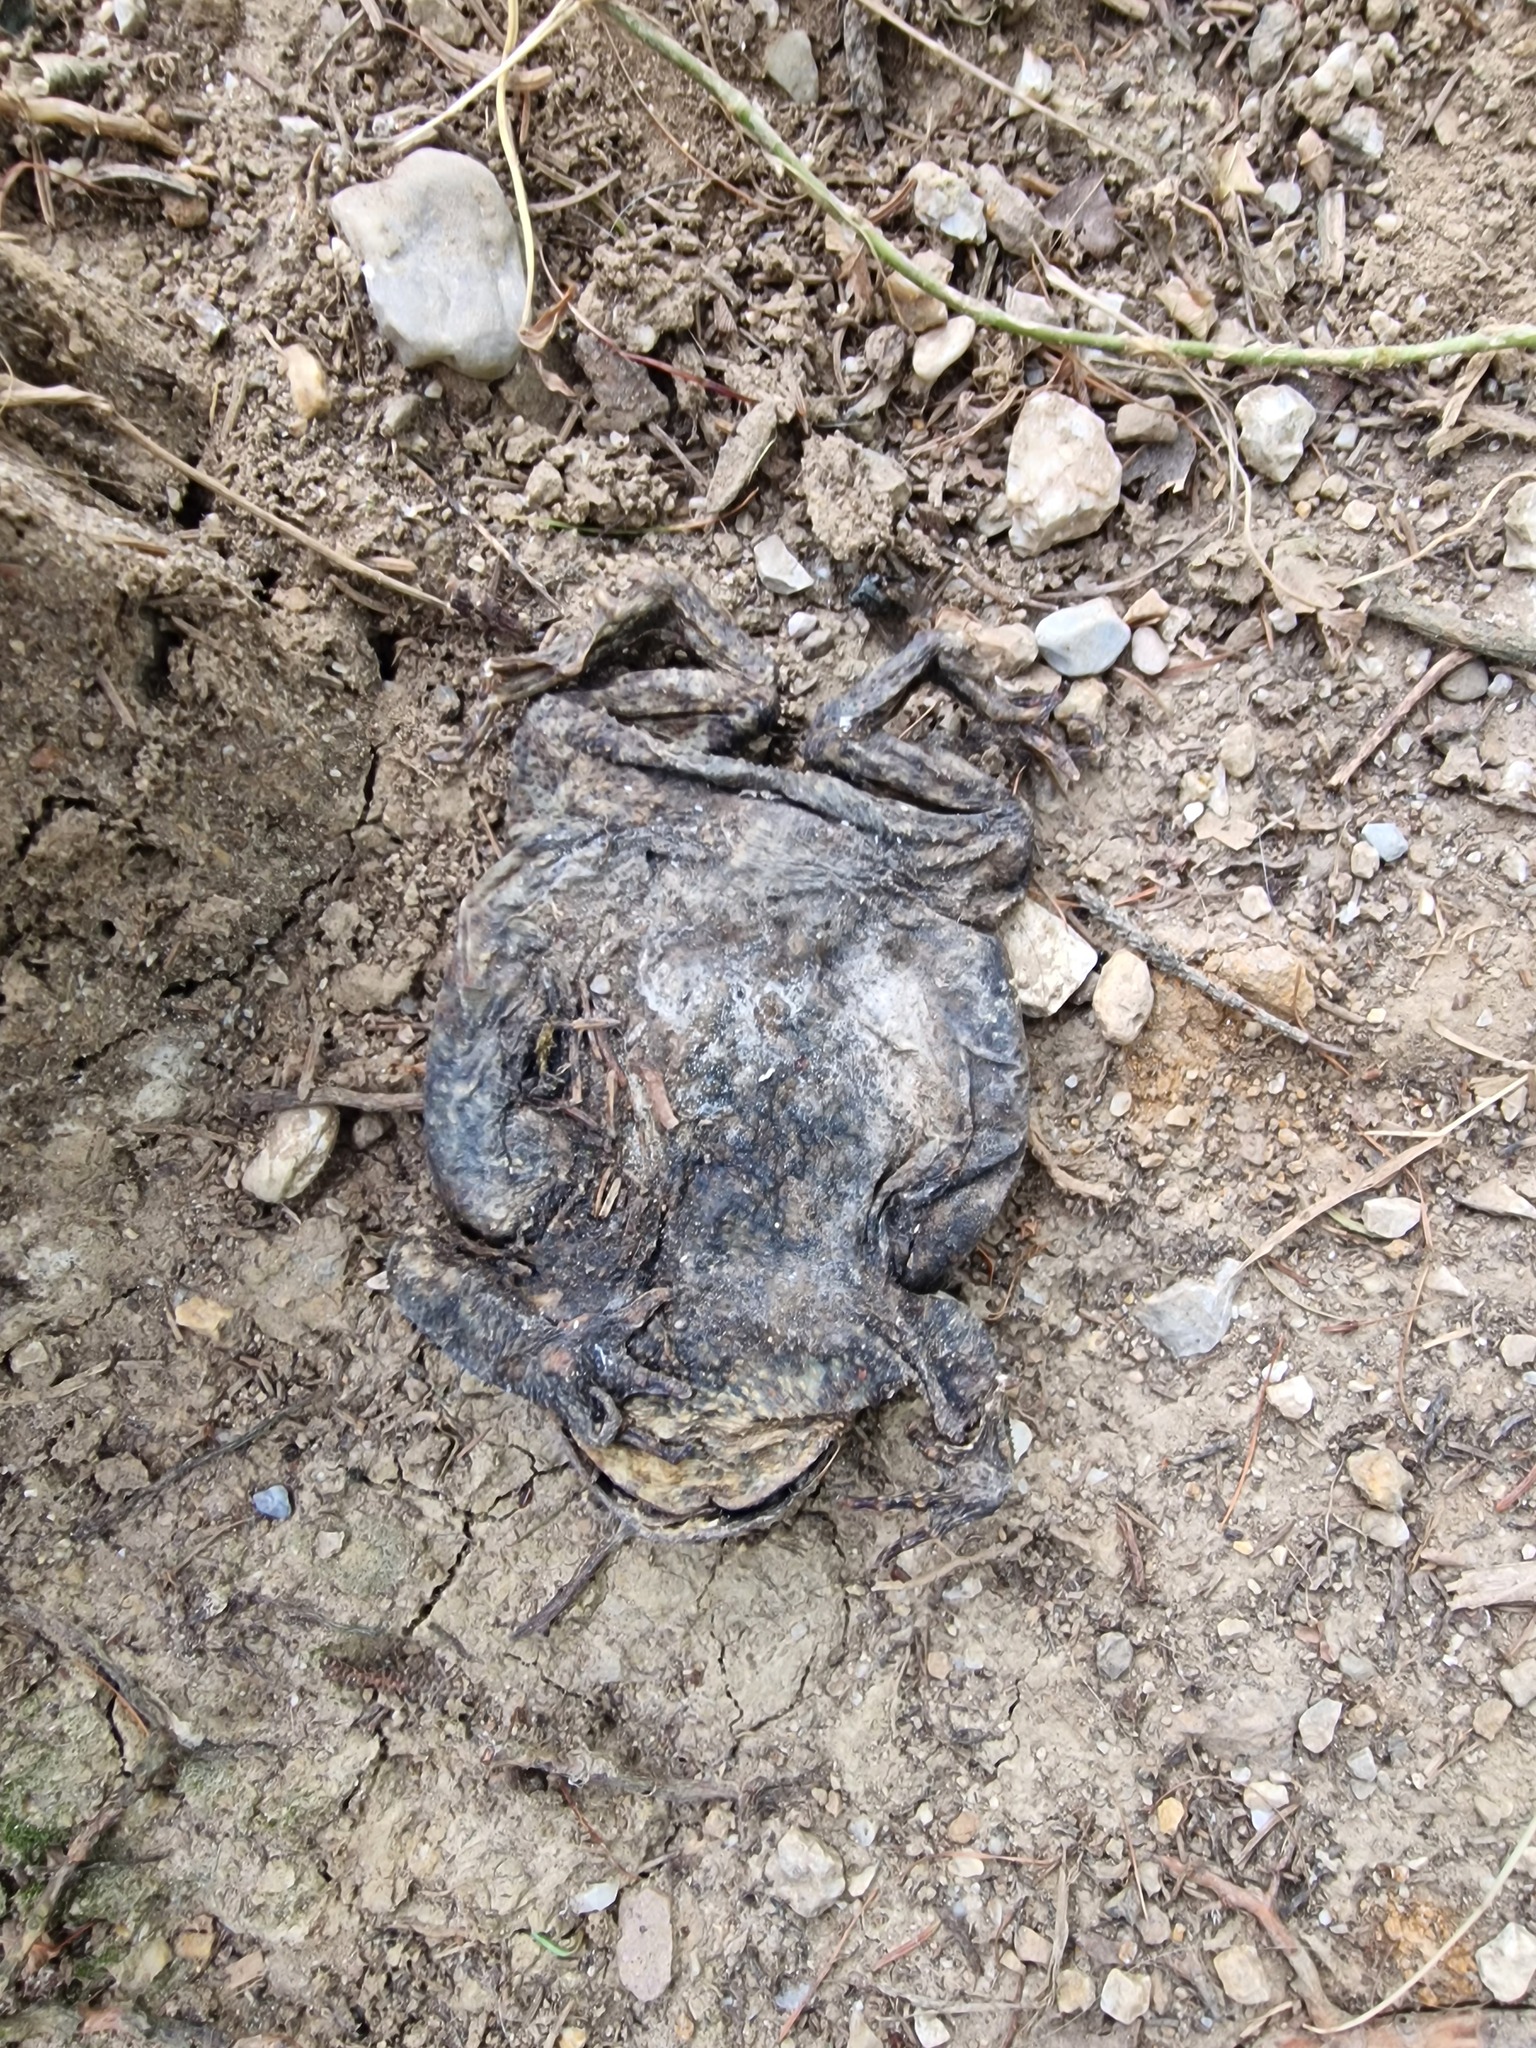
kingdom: Animalia
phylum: Chordata
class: Amphibia
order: Anura
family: Bufonidae
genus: Bufo
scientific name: Bufo bufo
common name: Common toad
